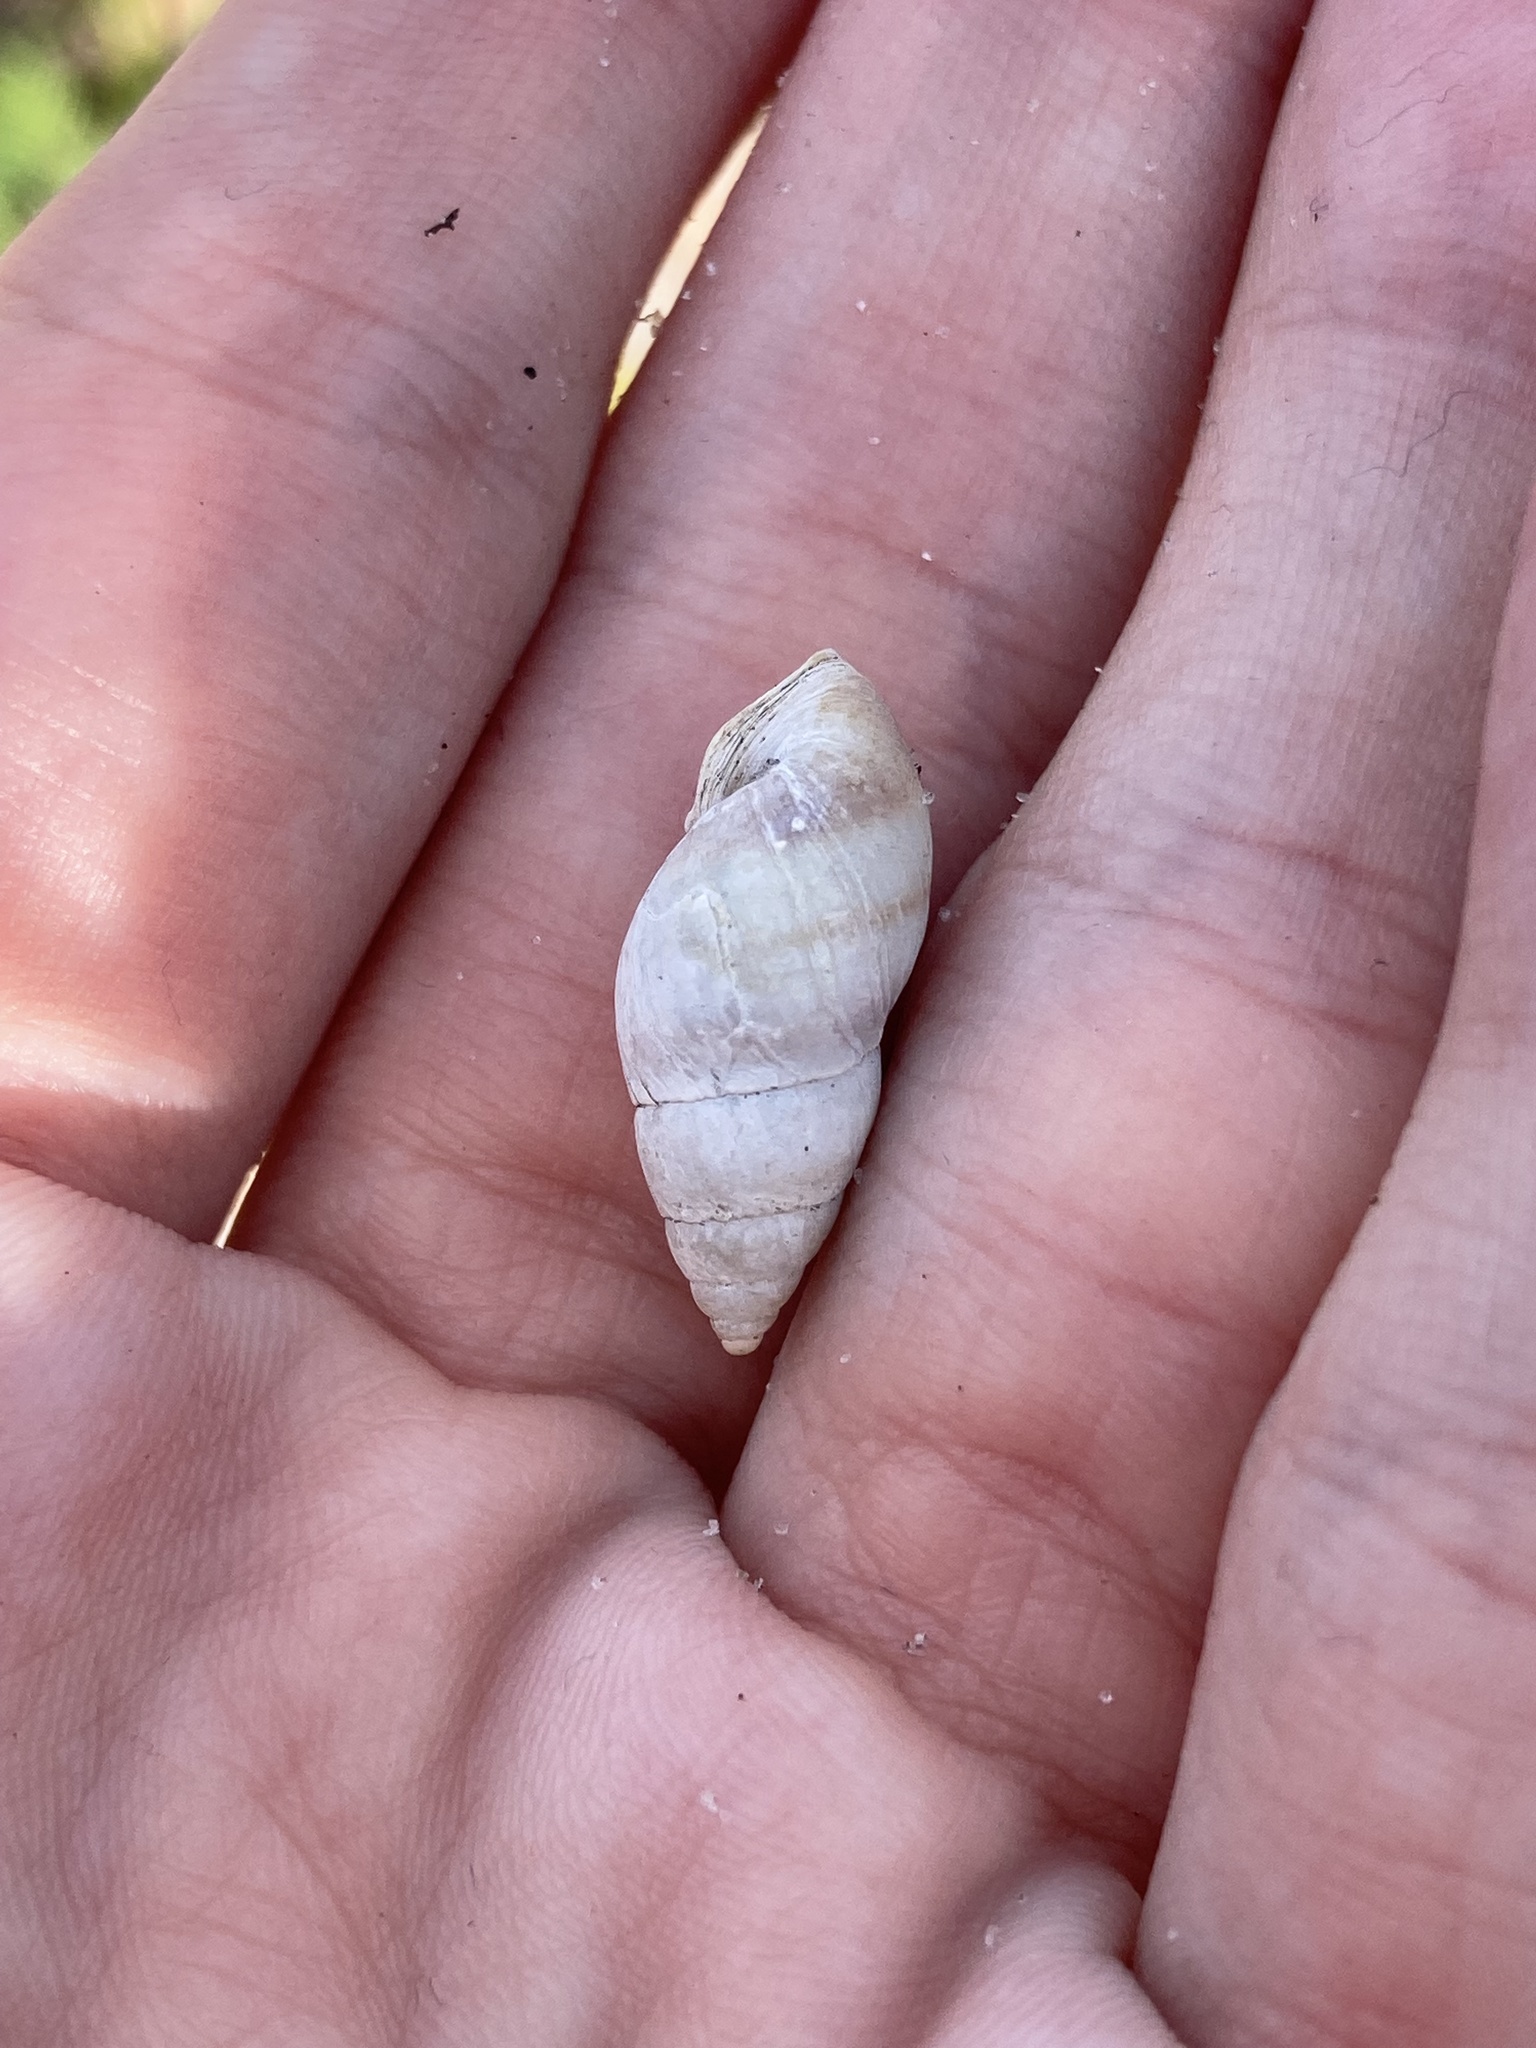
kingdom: Animalia
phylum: Mollusca
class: Gastropoda
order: Stylommatophora
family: Bulimulidae
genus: Bulimulus
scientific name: Bulimulus guadalupensis
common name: West indian bulimulus
